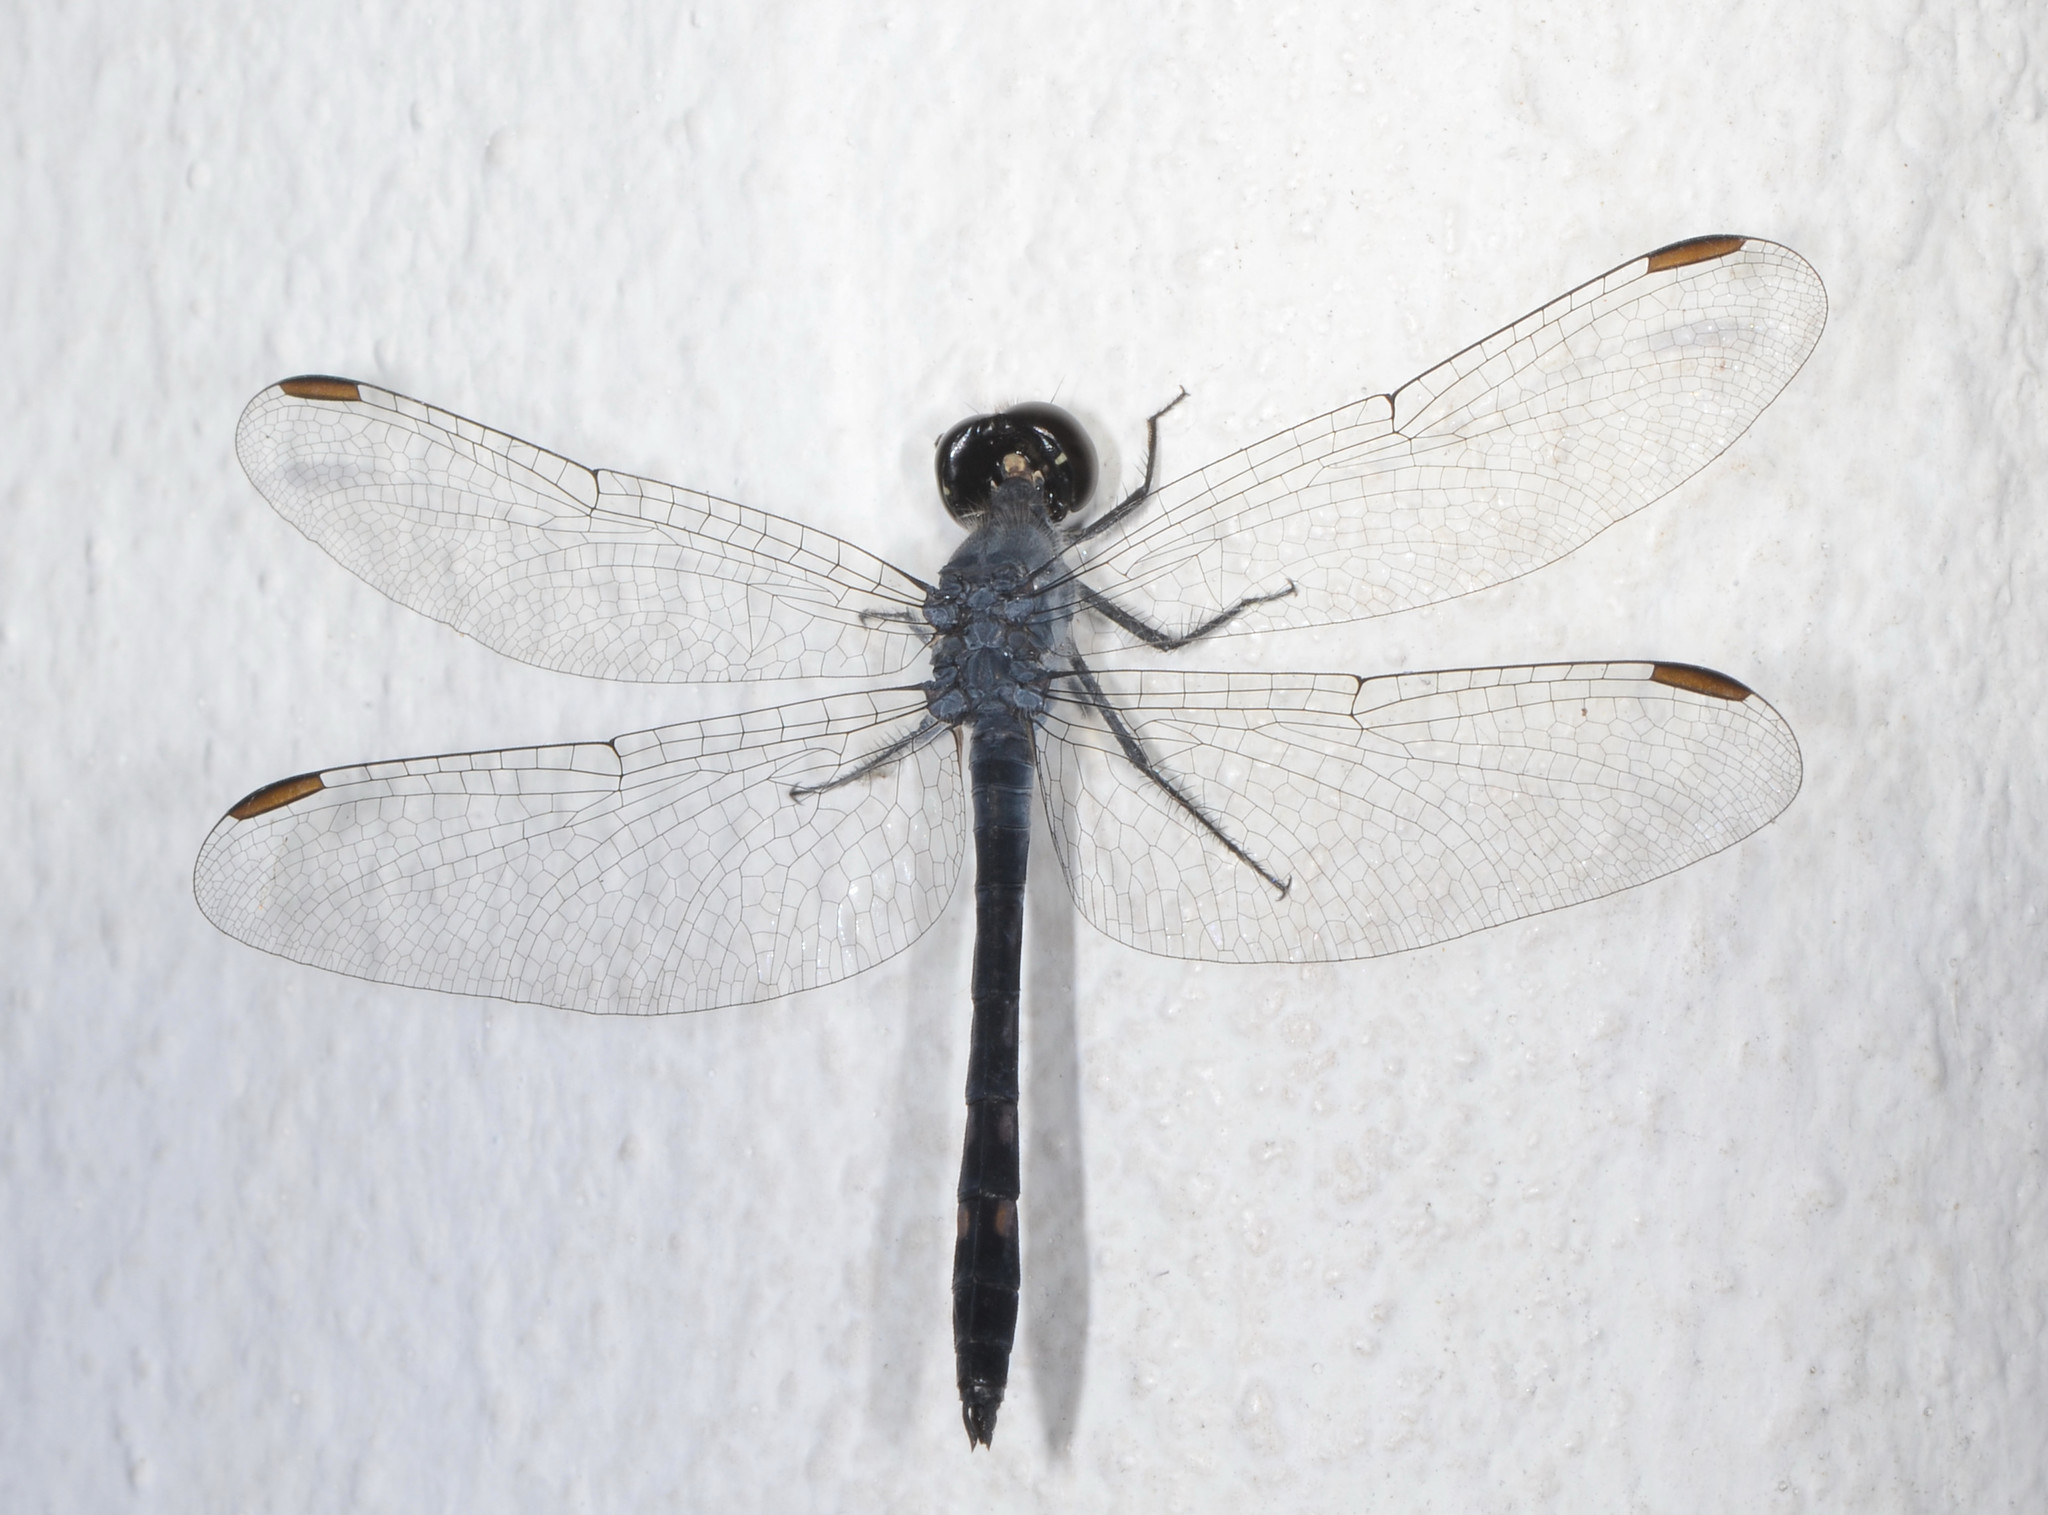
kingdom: Animalia
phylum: Arthropoda
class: Insecta
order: Odonata
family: Libellulidae
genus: Erythrodiplax
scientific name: Erythrodiplax berenice
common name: Seaside dragonlet
